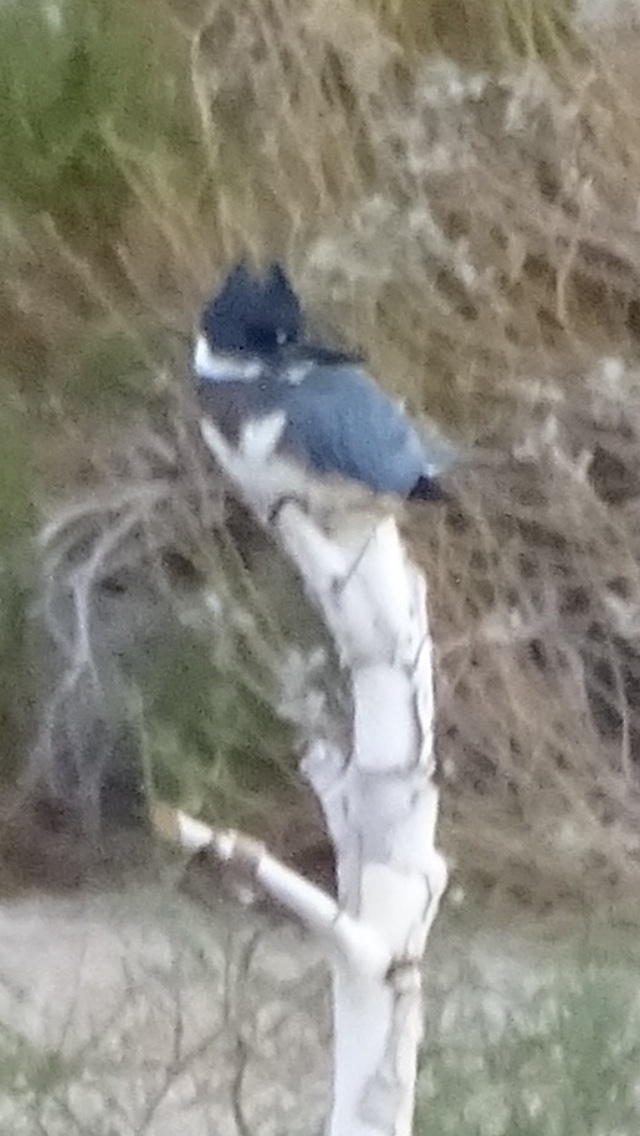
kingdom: Animalia
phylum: Chordata
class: Aves
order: Coraciiformes
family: Alcedinidae
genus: Megaceryle
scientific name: Megaceryle alcyon
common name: Belted kingfisher
